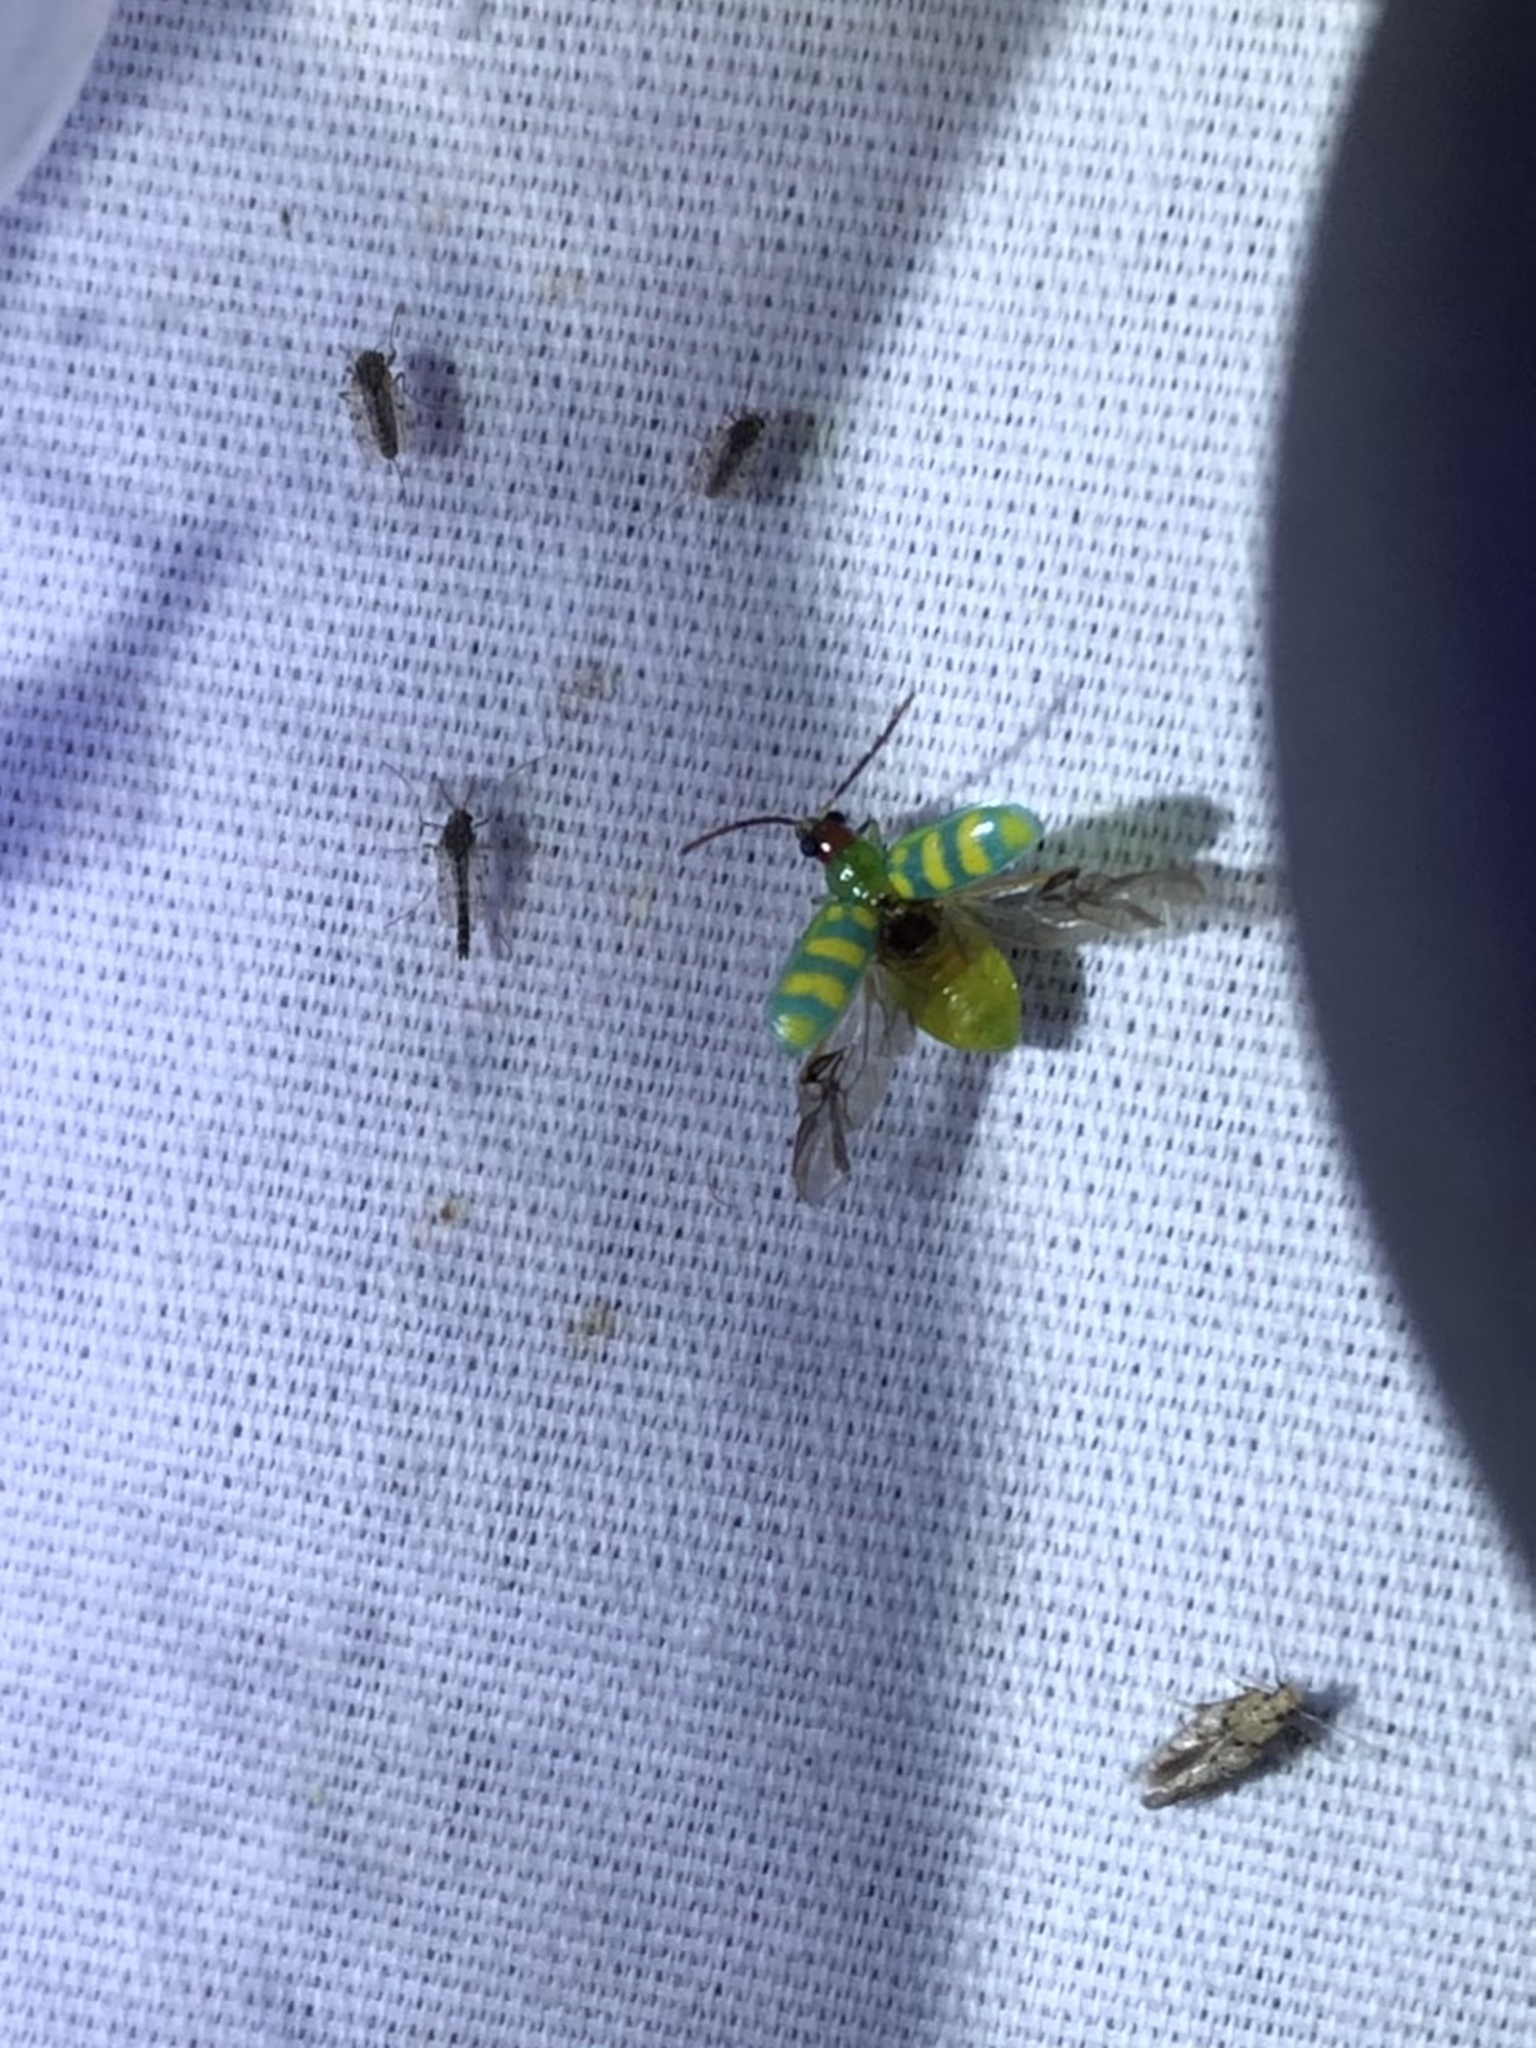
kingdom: Animalia
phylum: Arthropoda
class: Insecta
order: Coleoptera
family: Chrysomelidae
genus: Diabrotica
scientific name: Diabrotica balteata
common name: Leaf beetle
